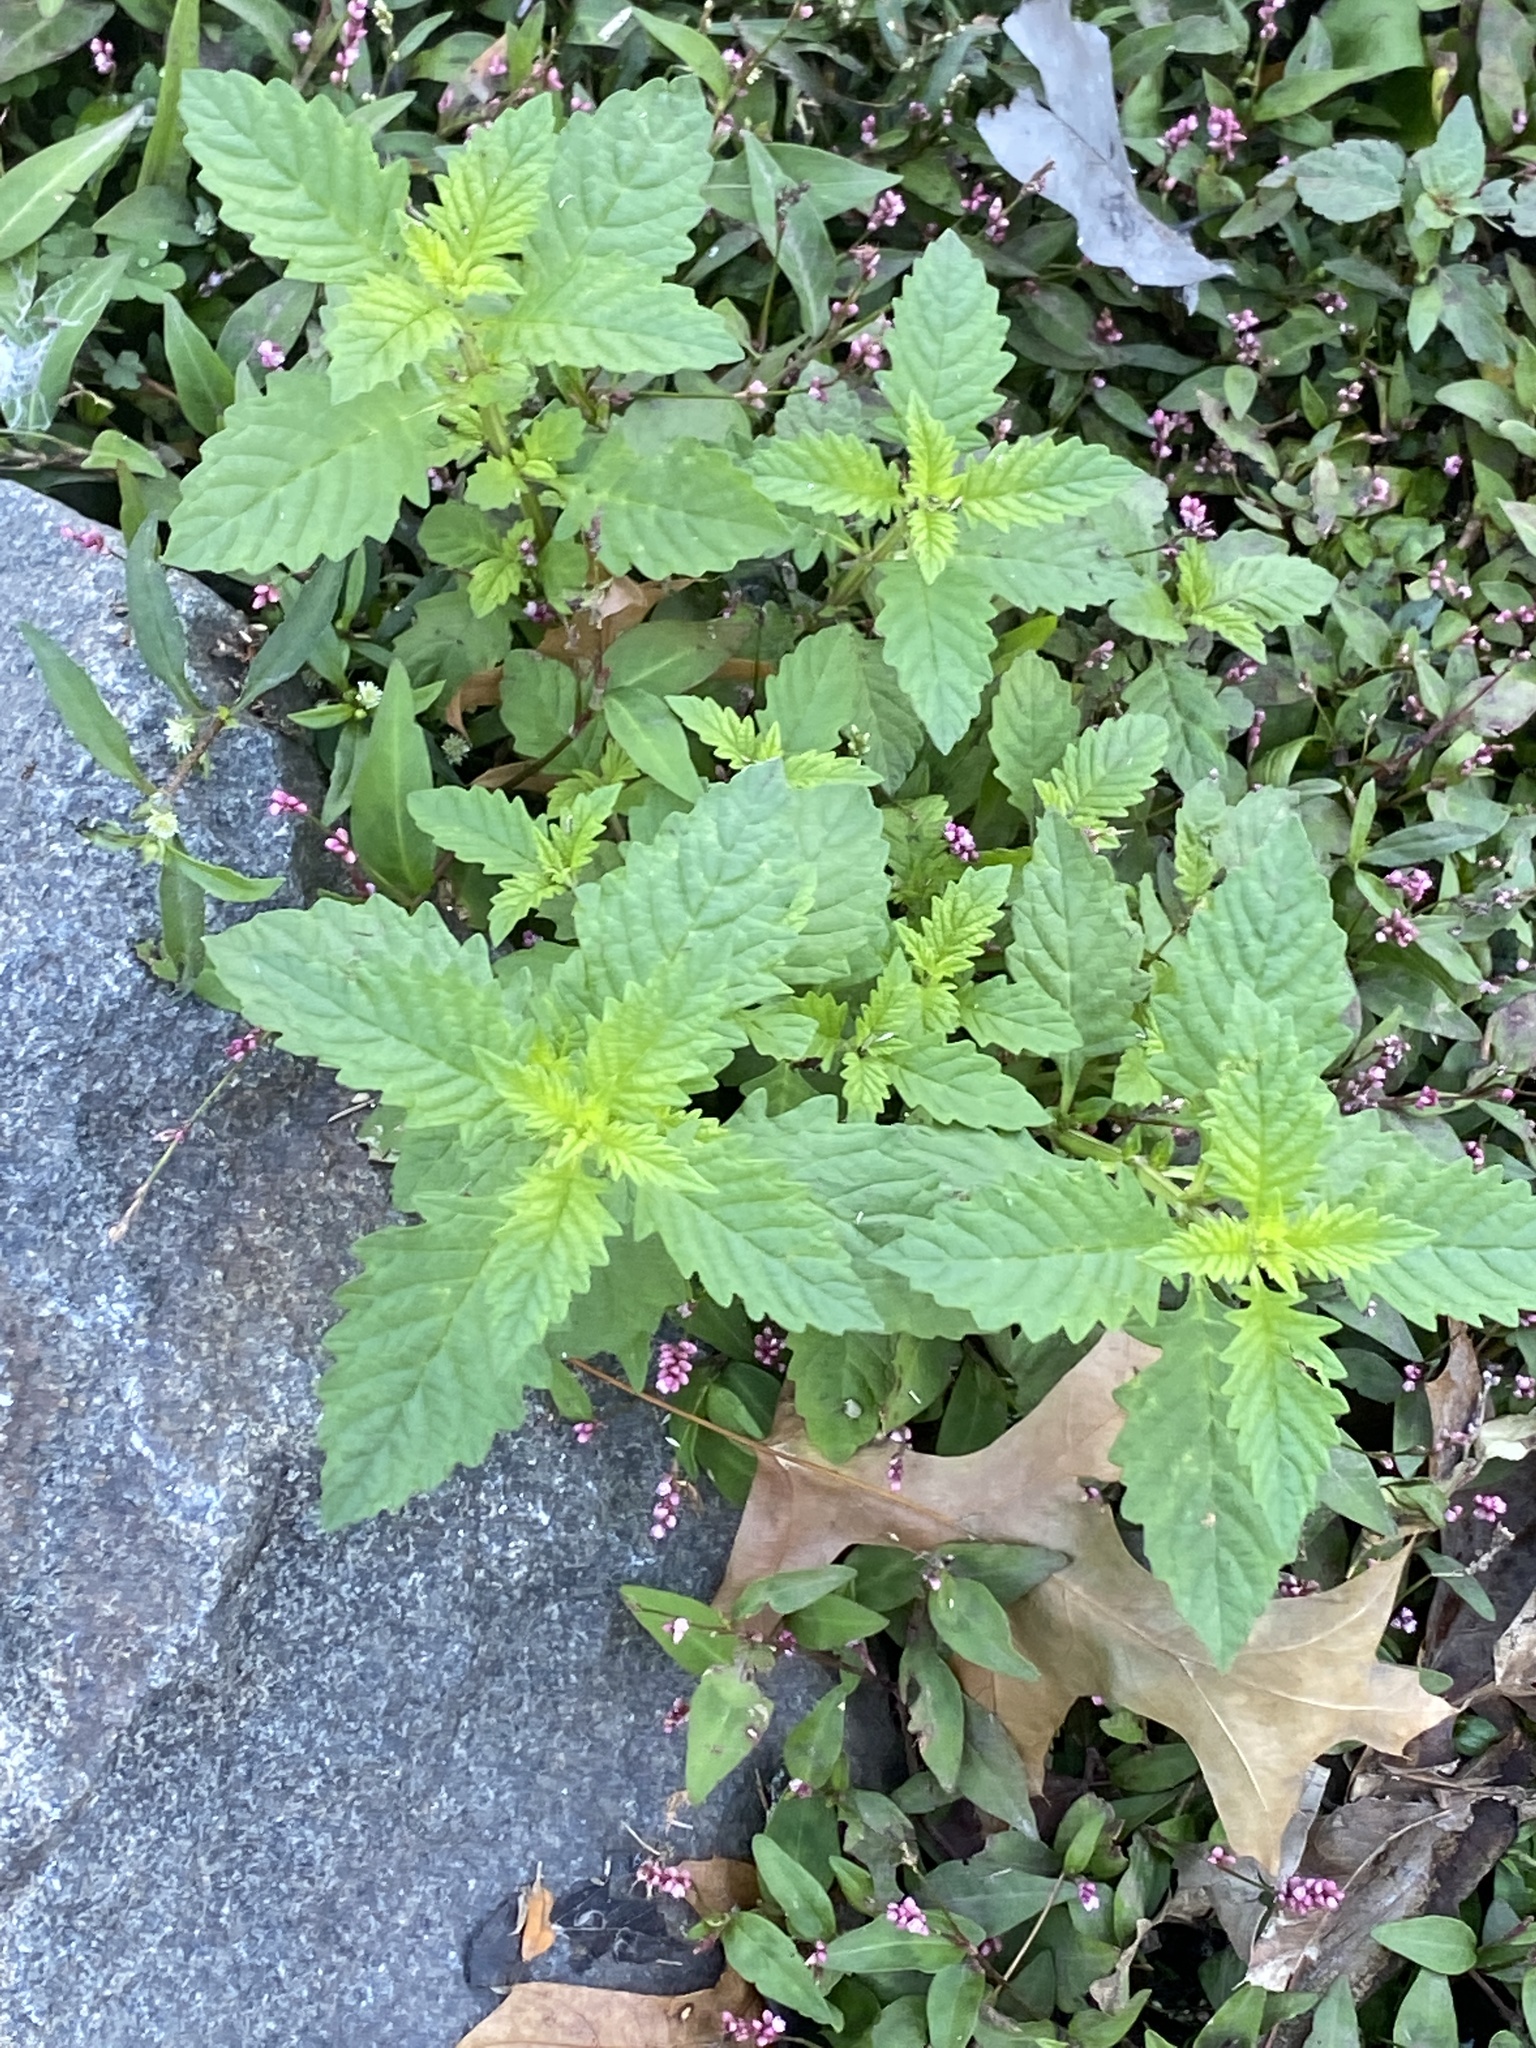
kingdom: Plantae
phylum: Tracheophyta
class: Magnoliopsida
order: Lamiales
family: Lamiaceae
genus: Lycopus
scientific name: Lycopus europaeus
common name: European bugleweed
